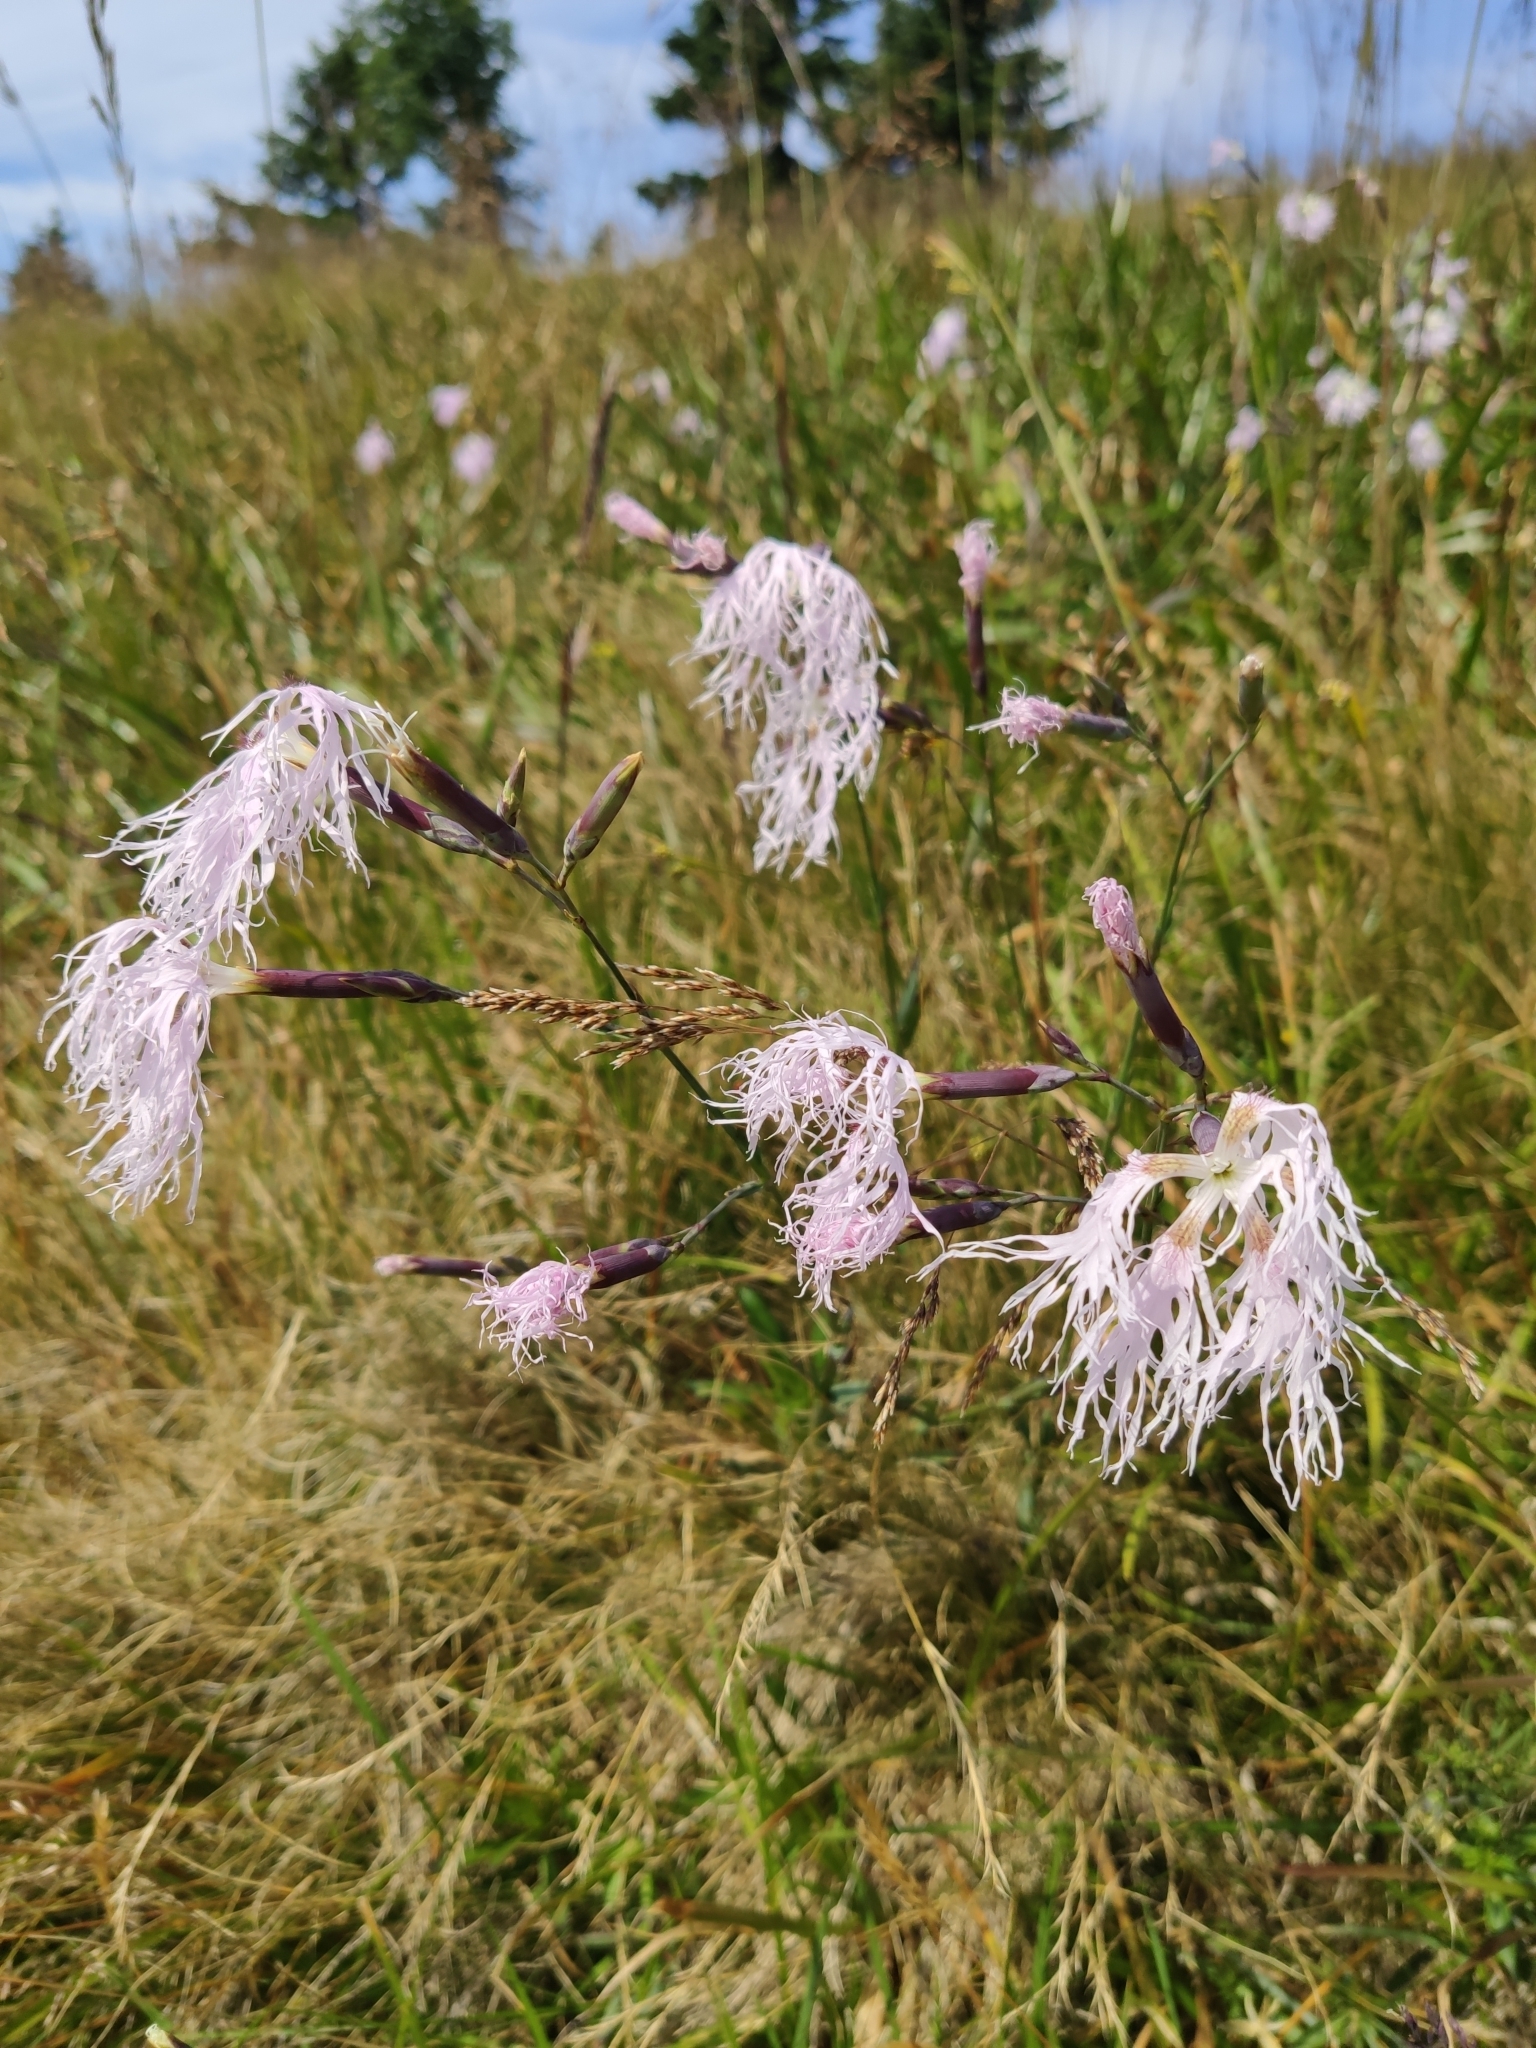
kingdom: Plantae
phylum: Tracheophyta
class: Magnoliopsida
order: Caryophyllales
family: Caryophyllaceae
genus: Dianthus
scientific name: Dianthus superbus
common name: Fringed pink
